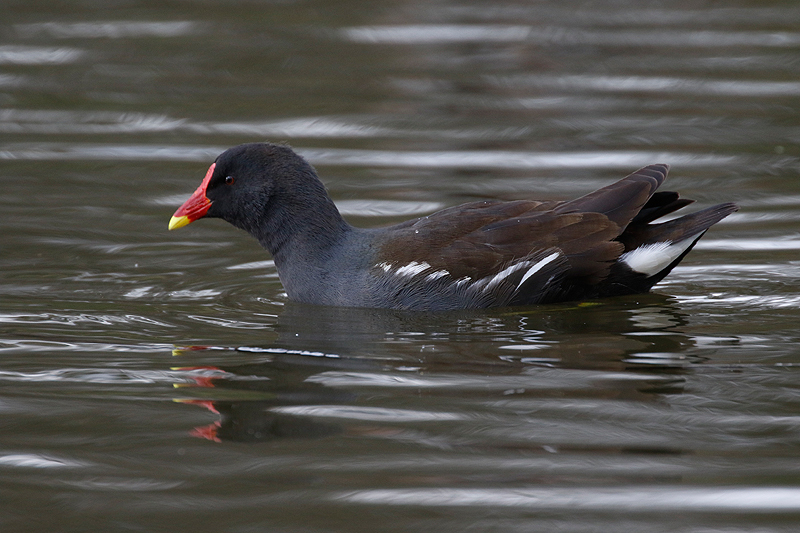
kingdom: Animalia
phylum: Chordata
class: Aves
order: Gruiformes
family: Rallidae
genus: Gallinula
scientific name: Gallinula chloropus
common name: Common moorhen
